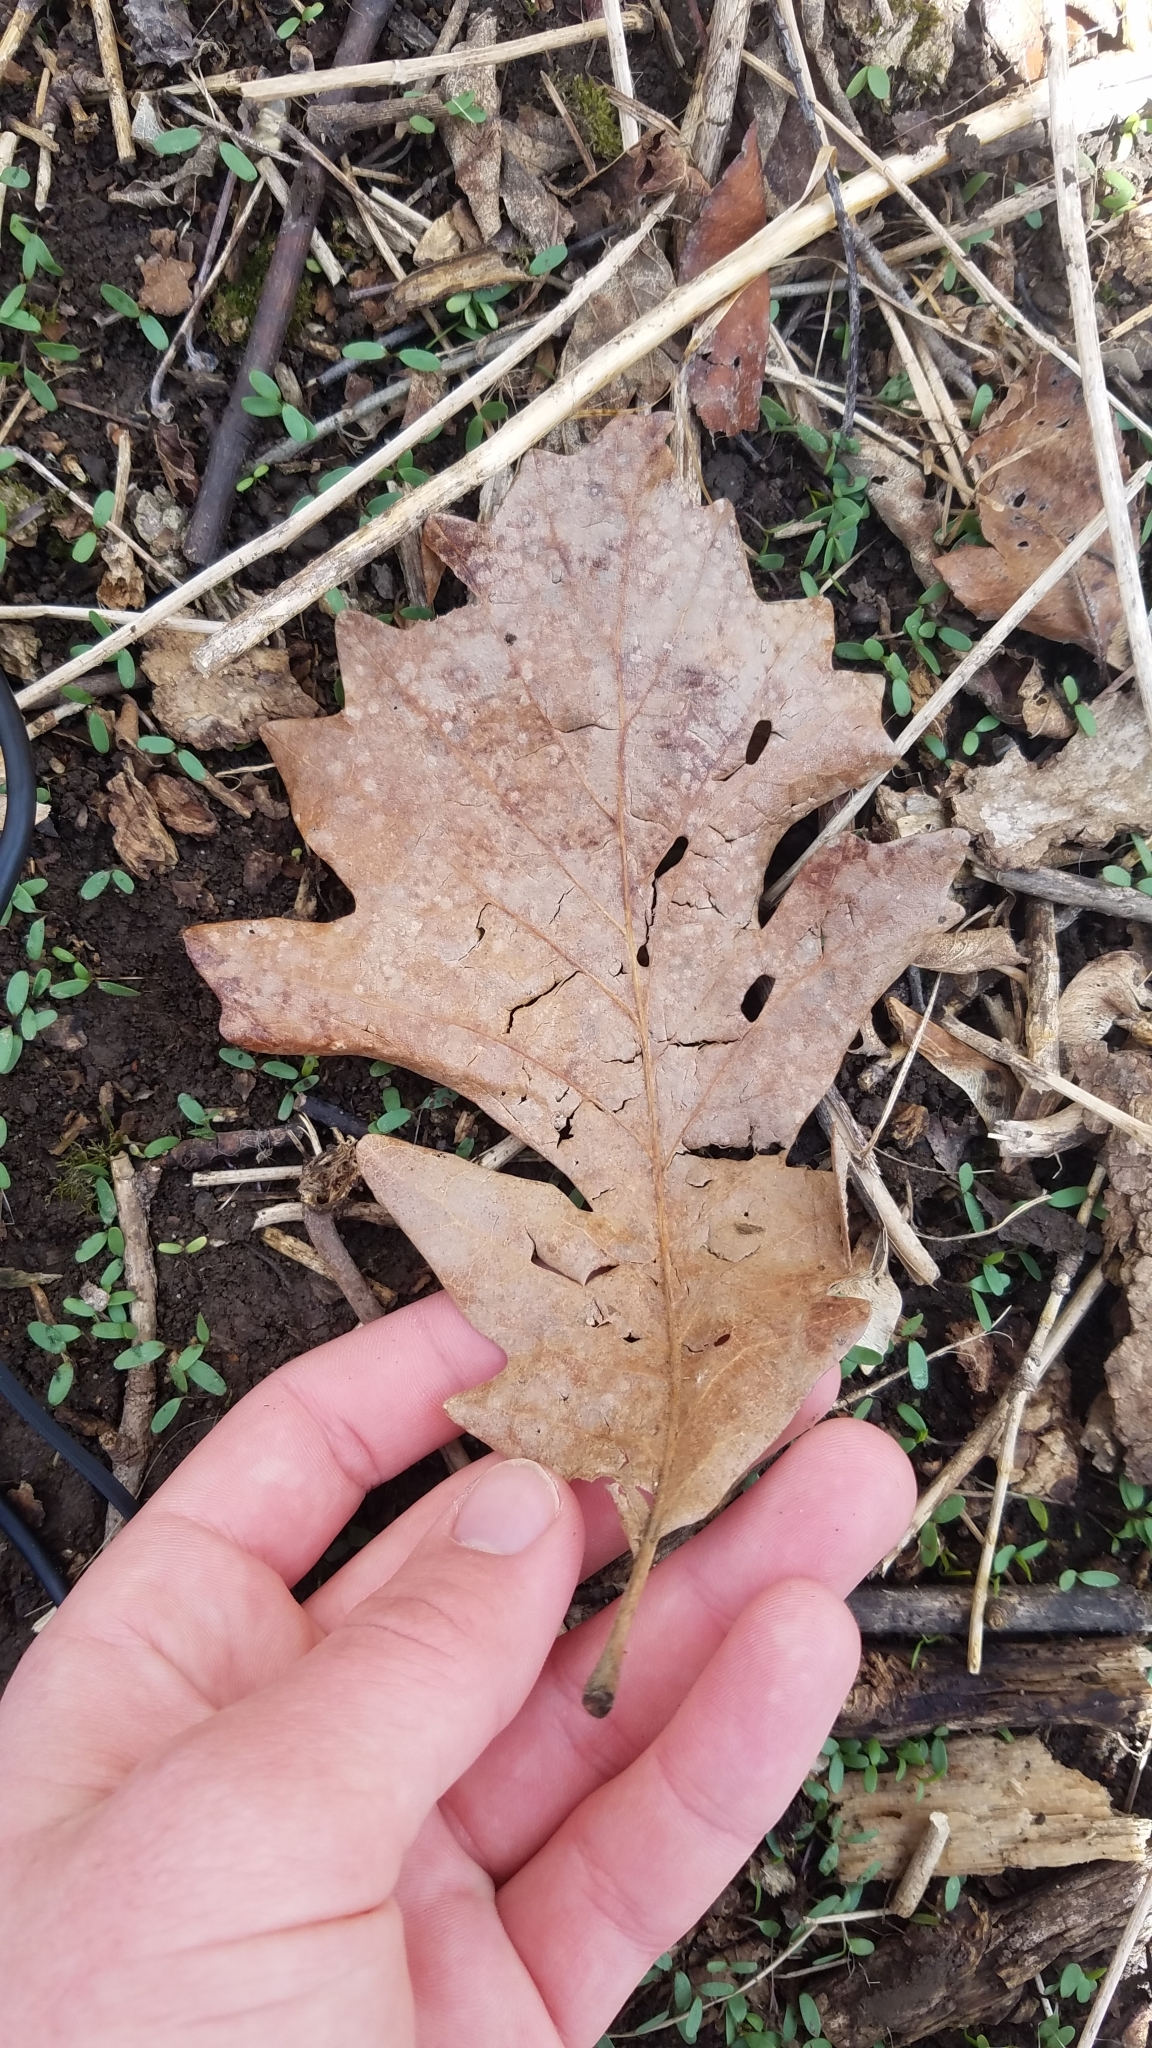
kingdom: Plantae
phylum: Tracheophyta
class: Magnoliopsida
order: Fagales
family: Fagaceae
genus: Quercus
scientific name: Quercus macrocarpa
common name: Bur oak
